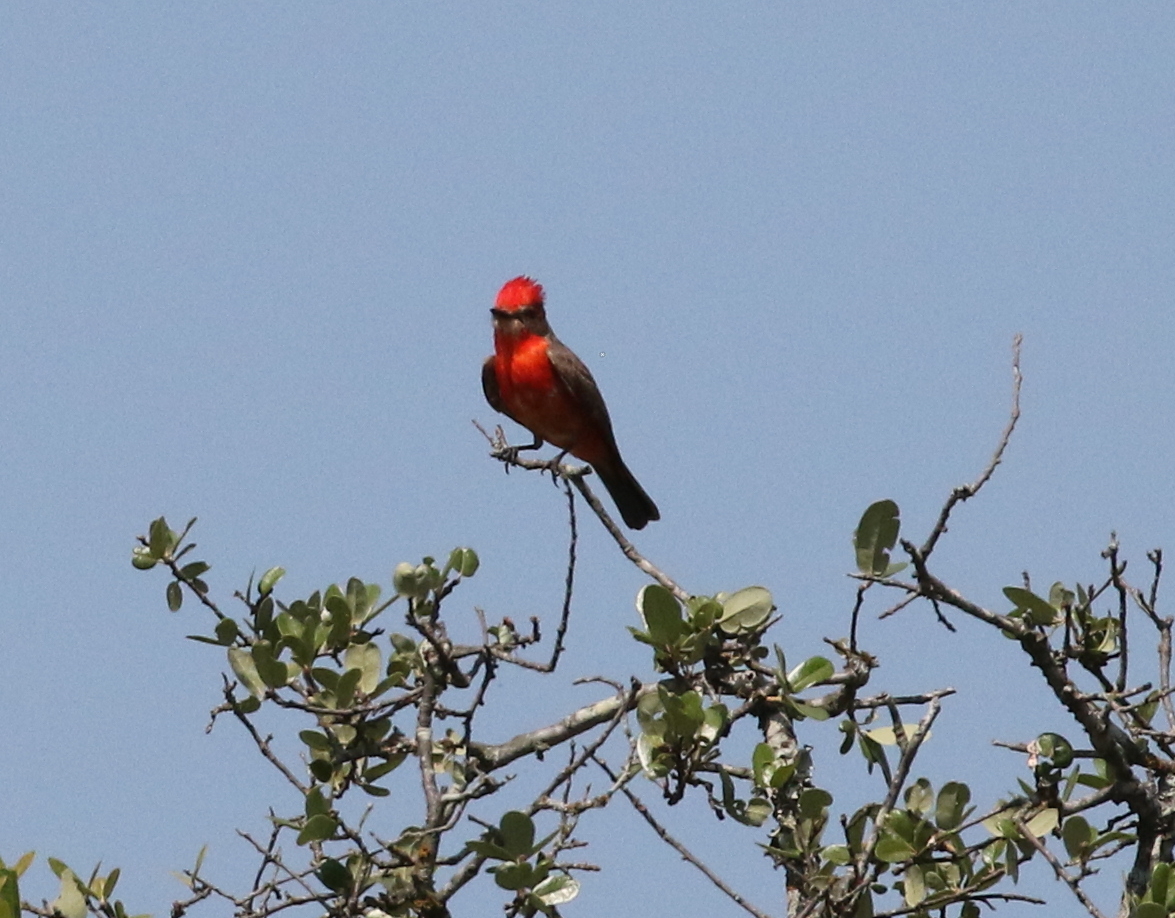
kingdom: Animalia
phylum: Chordata
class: Aves
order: Passeriformes
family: Tyrannidae
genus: Pyrocephalus
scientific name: Pyrocephalus rubinus
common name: Vermilion flycatcher
